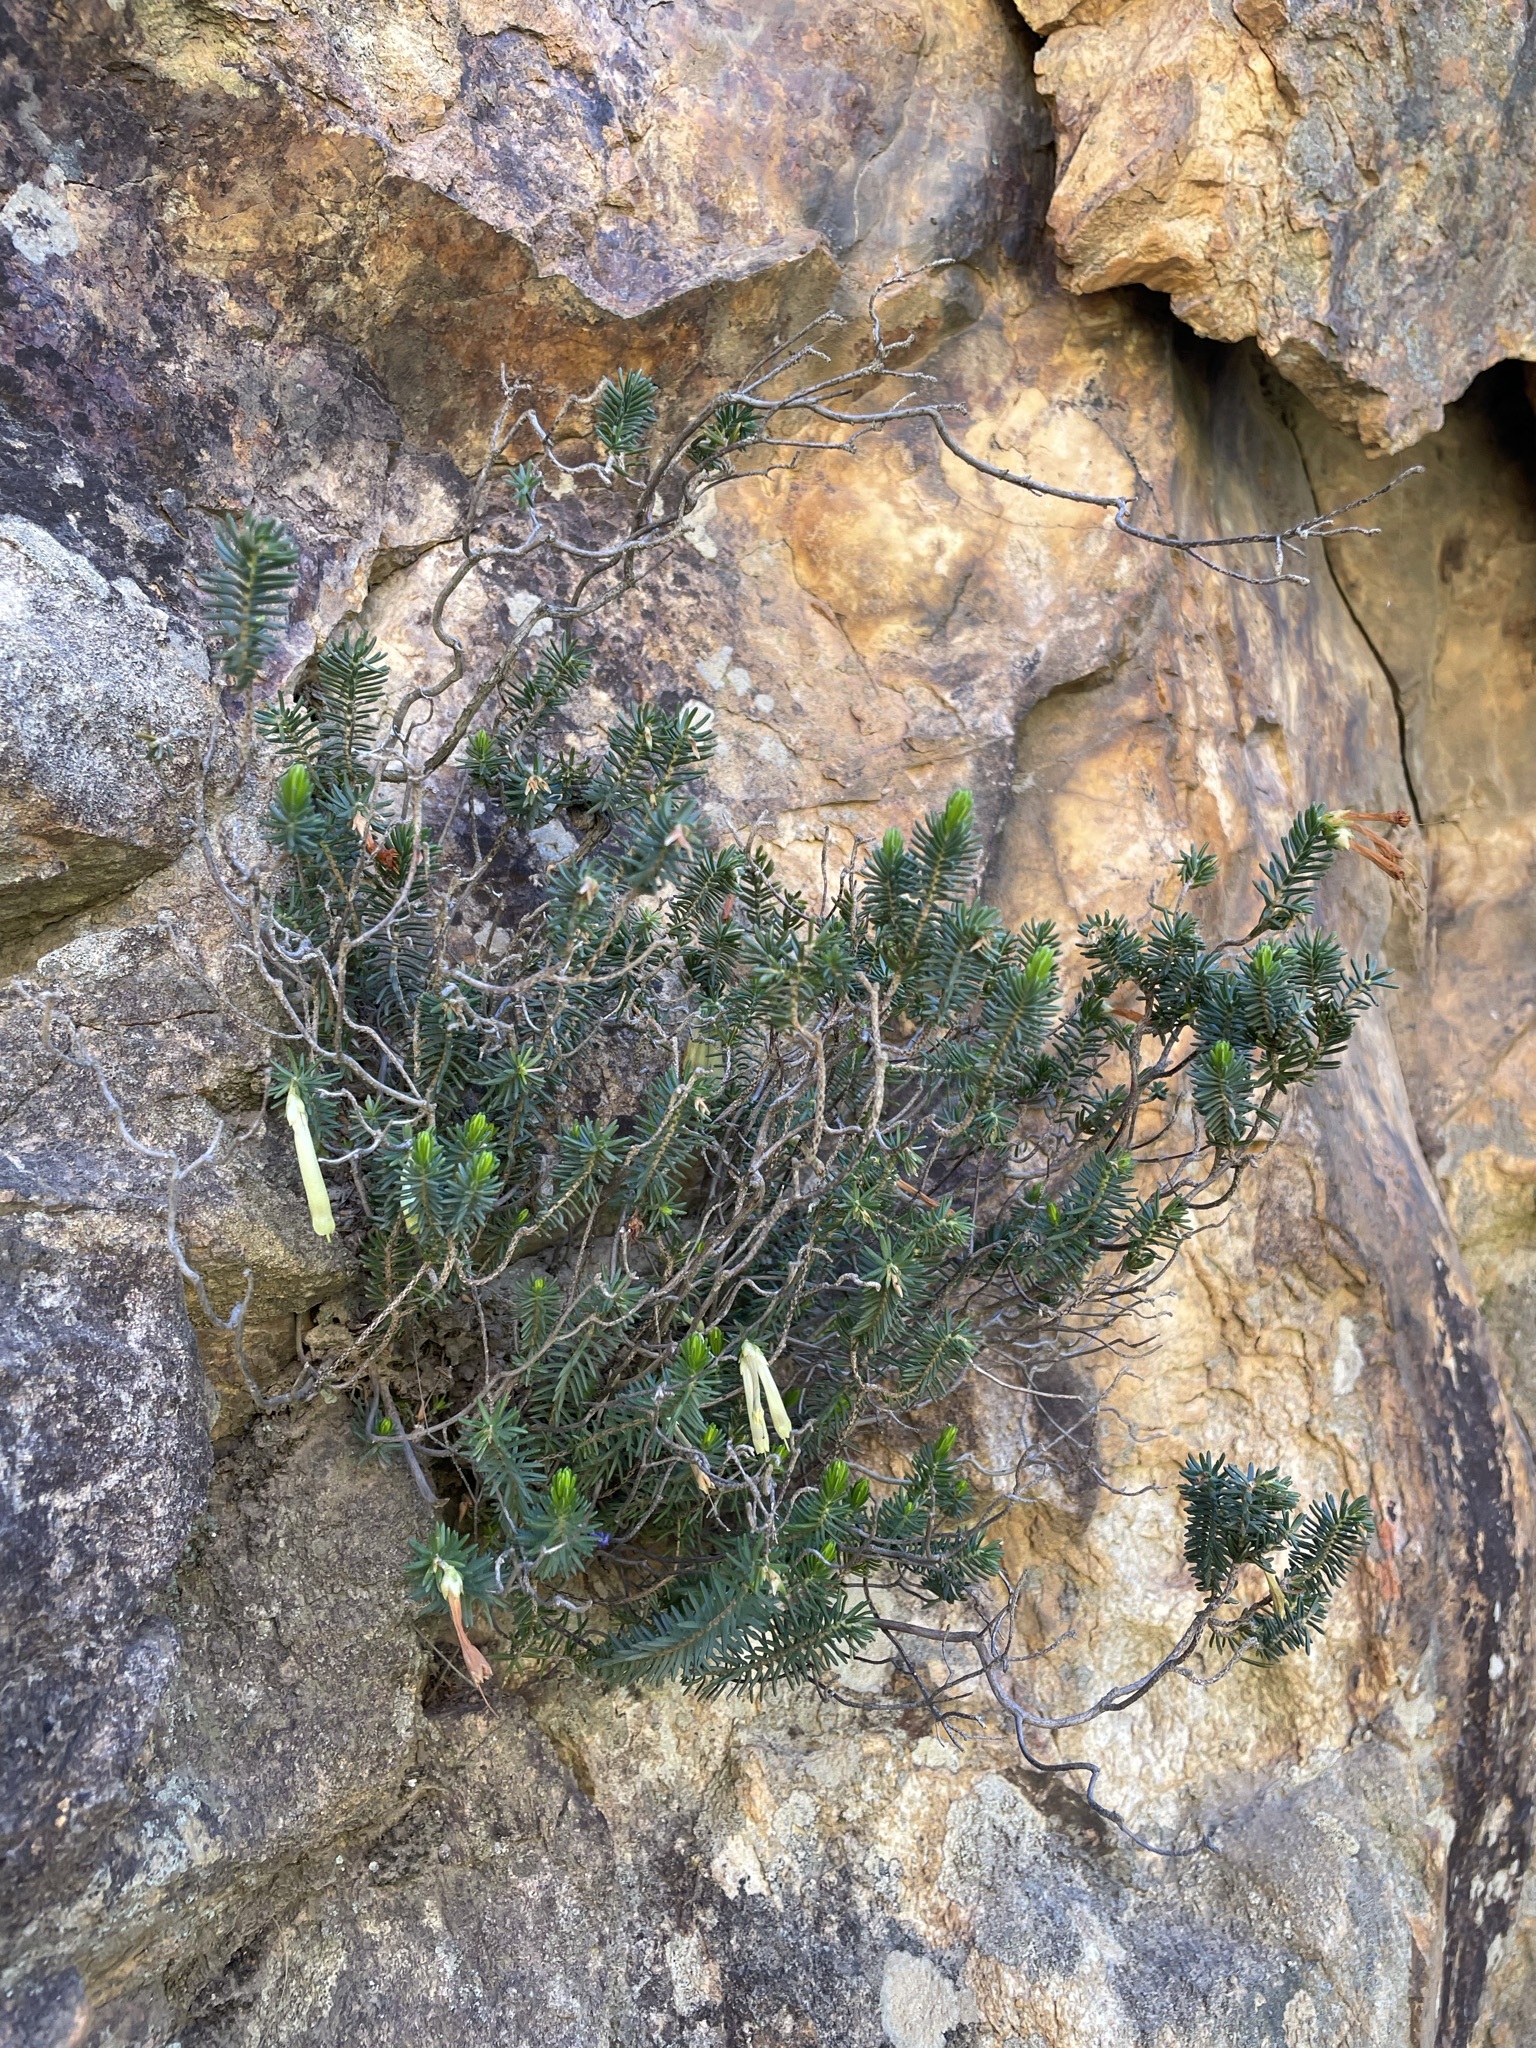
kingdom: Plantae
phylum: Tracheophyta
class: Magnoliopsida
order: Ericales
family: Ericaceae
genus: Erica
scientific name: Erica viridiflora
